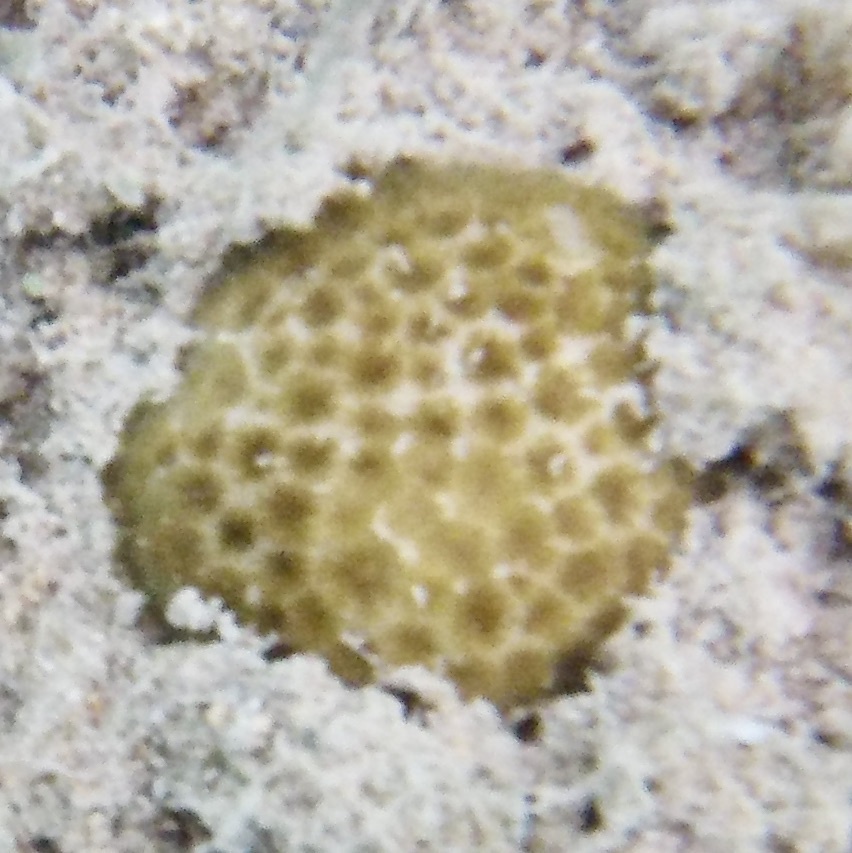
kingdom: Animalia
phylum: Cnidaria
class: Anthozoa
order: Scleractinia
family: Rhizangiidae
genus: Siderastrea
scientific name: Siderastrea radians
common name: Lesser starlet coral
